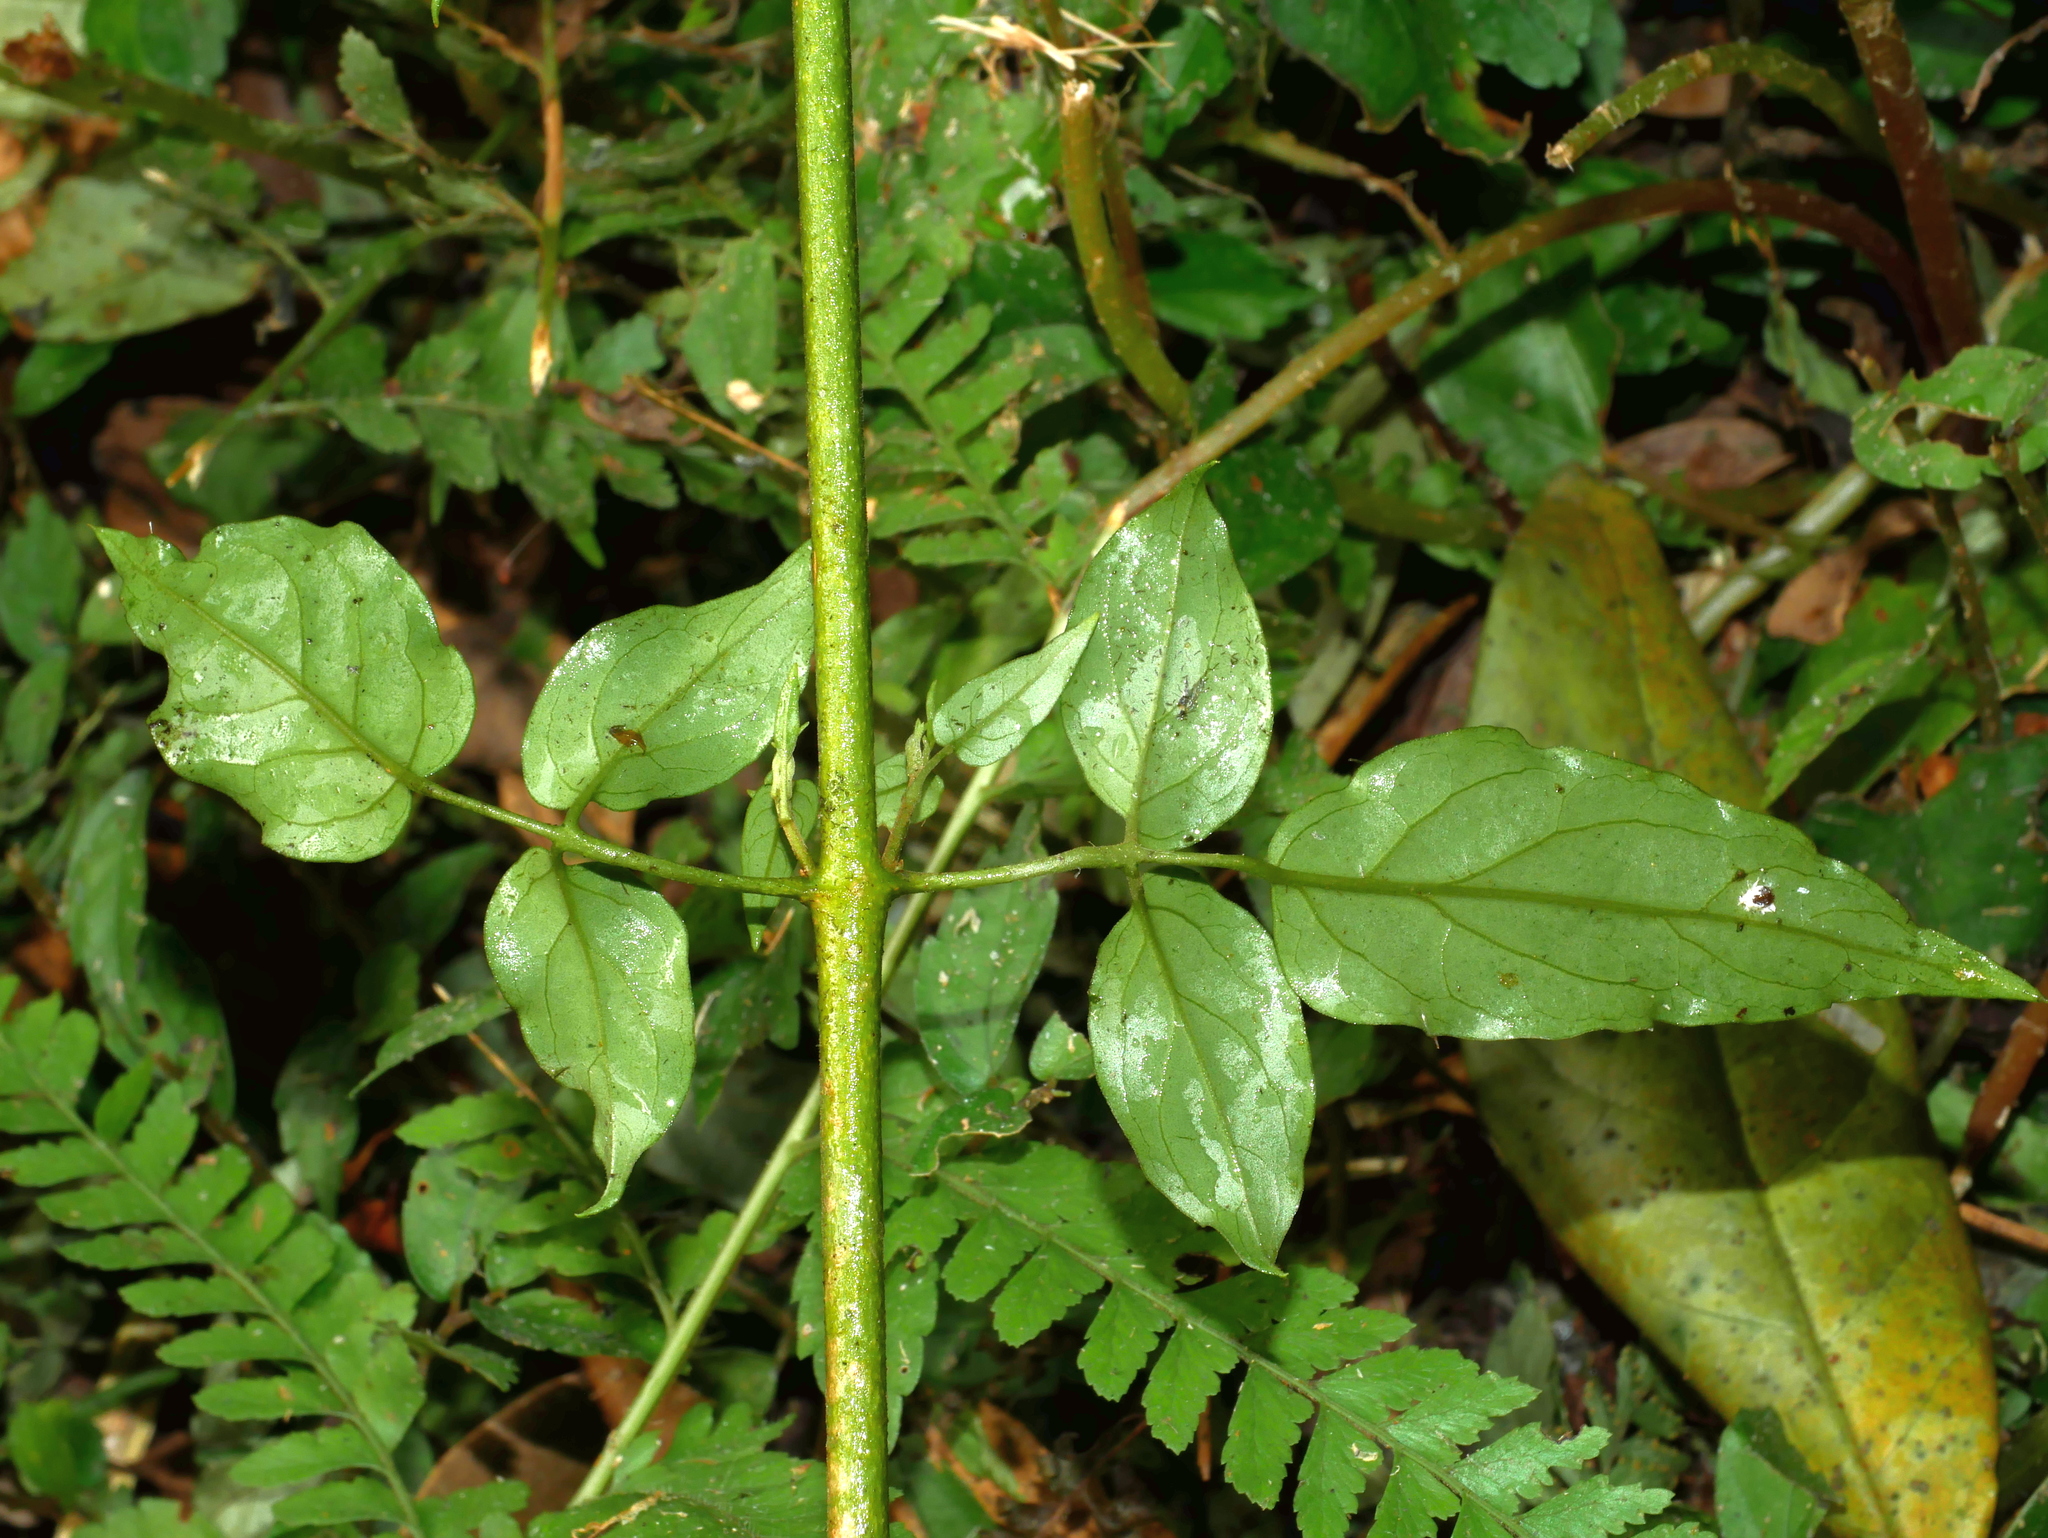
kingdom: Plantae
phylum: Tracheophyta
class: Magnoliopsida
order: Lamiales
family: Oleaceae
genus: Jasminum
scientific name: Jasminum sinense
